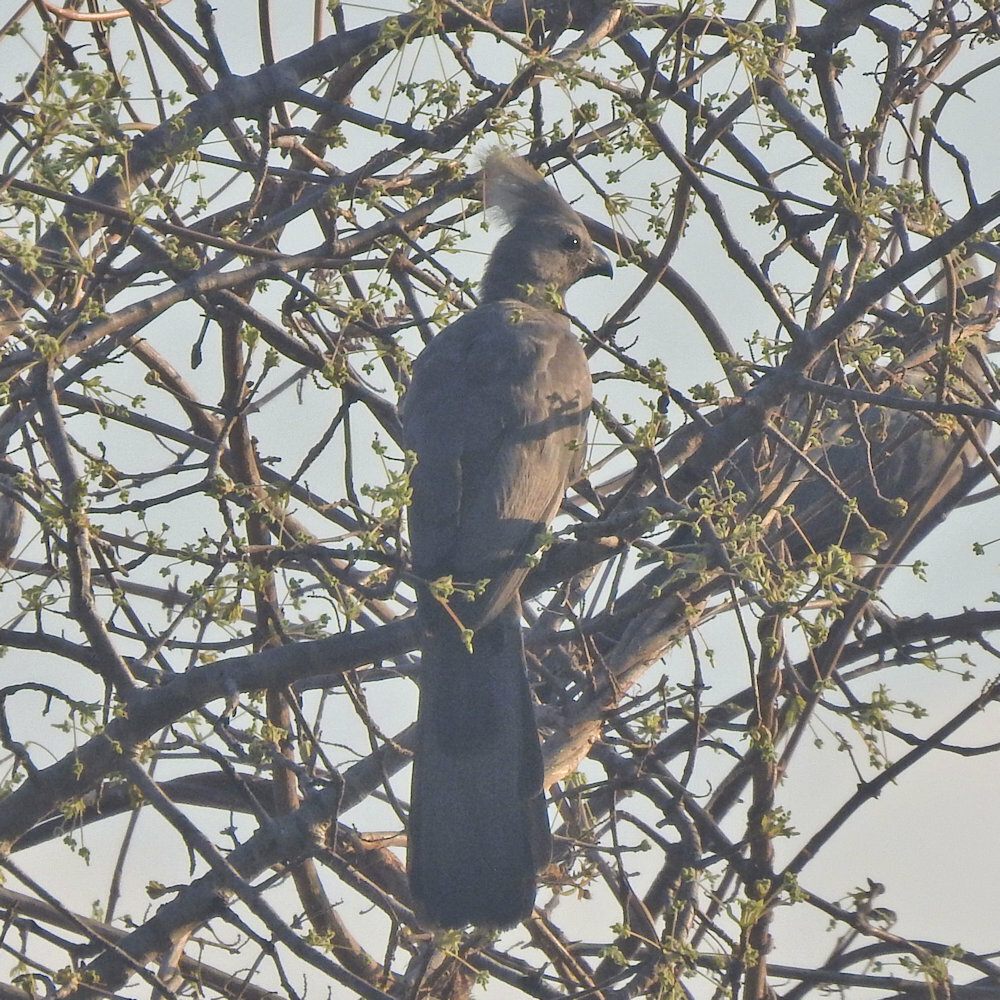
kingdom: Animalia
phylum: Chordata
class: Aves
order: Musophagiformes
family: Musophagidae
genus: Corythaixoides
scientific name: Corythaixoides concolor
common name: Grey go-away-bird
